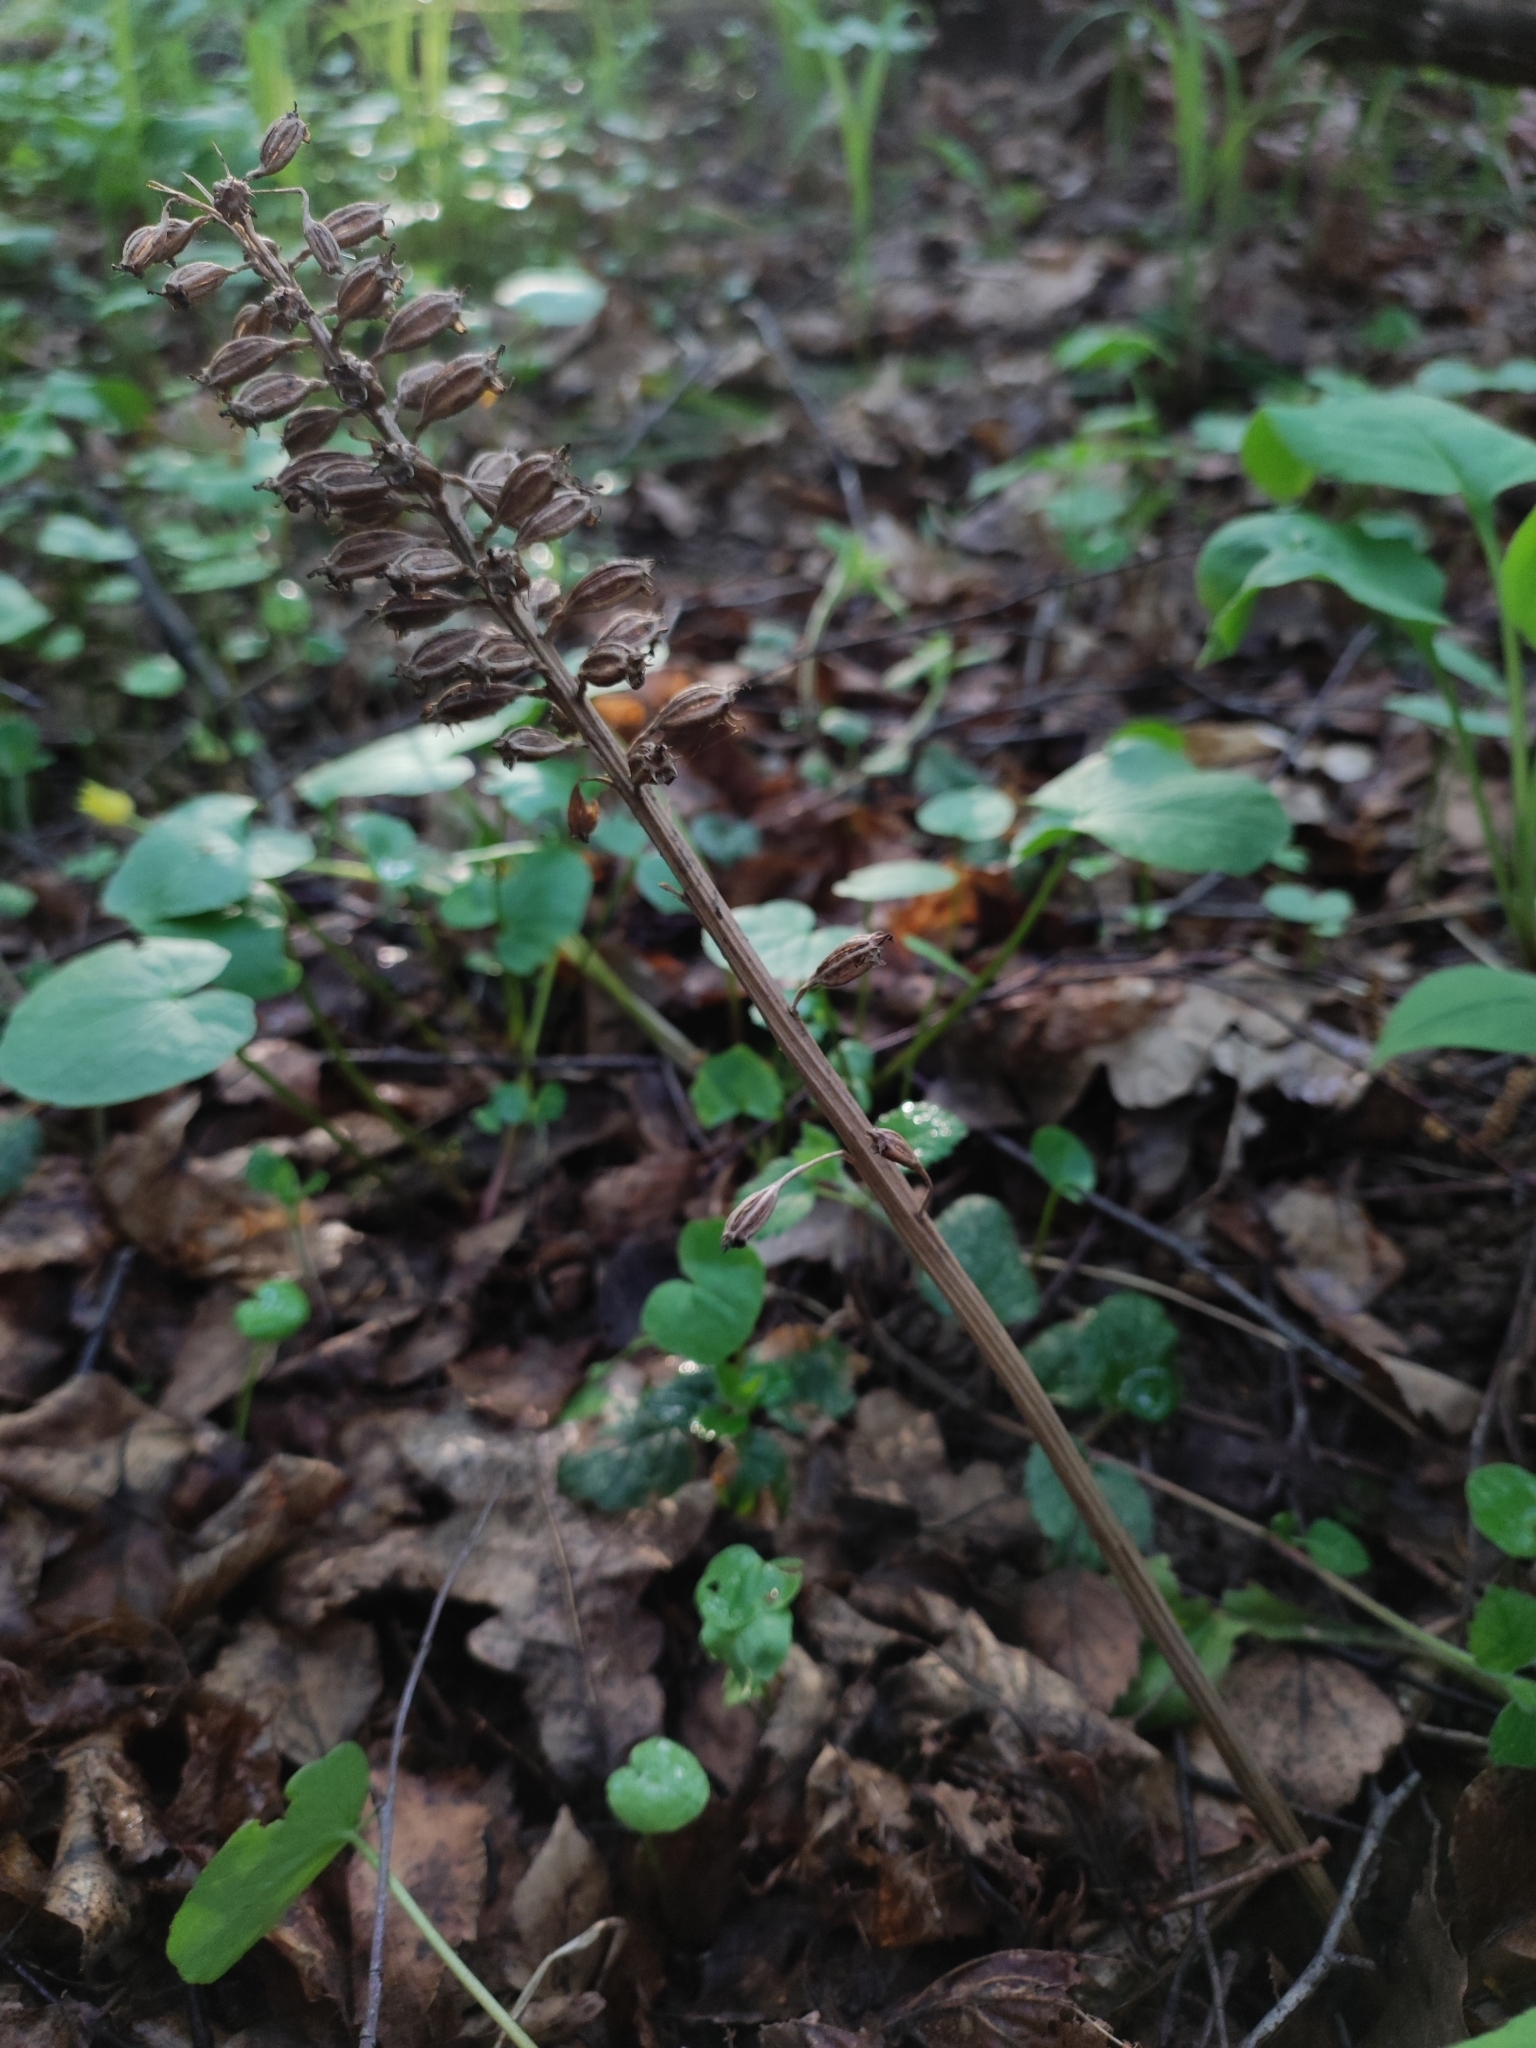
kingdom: Plantae
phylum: Tracheophyta
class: Liliopsida
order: Asparagales
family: Orchidaceae
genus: Neottia
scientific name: Neottia nidus-avis
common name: Bird's-nest orchid
